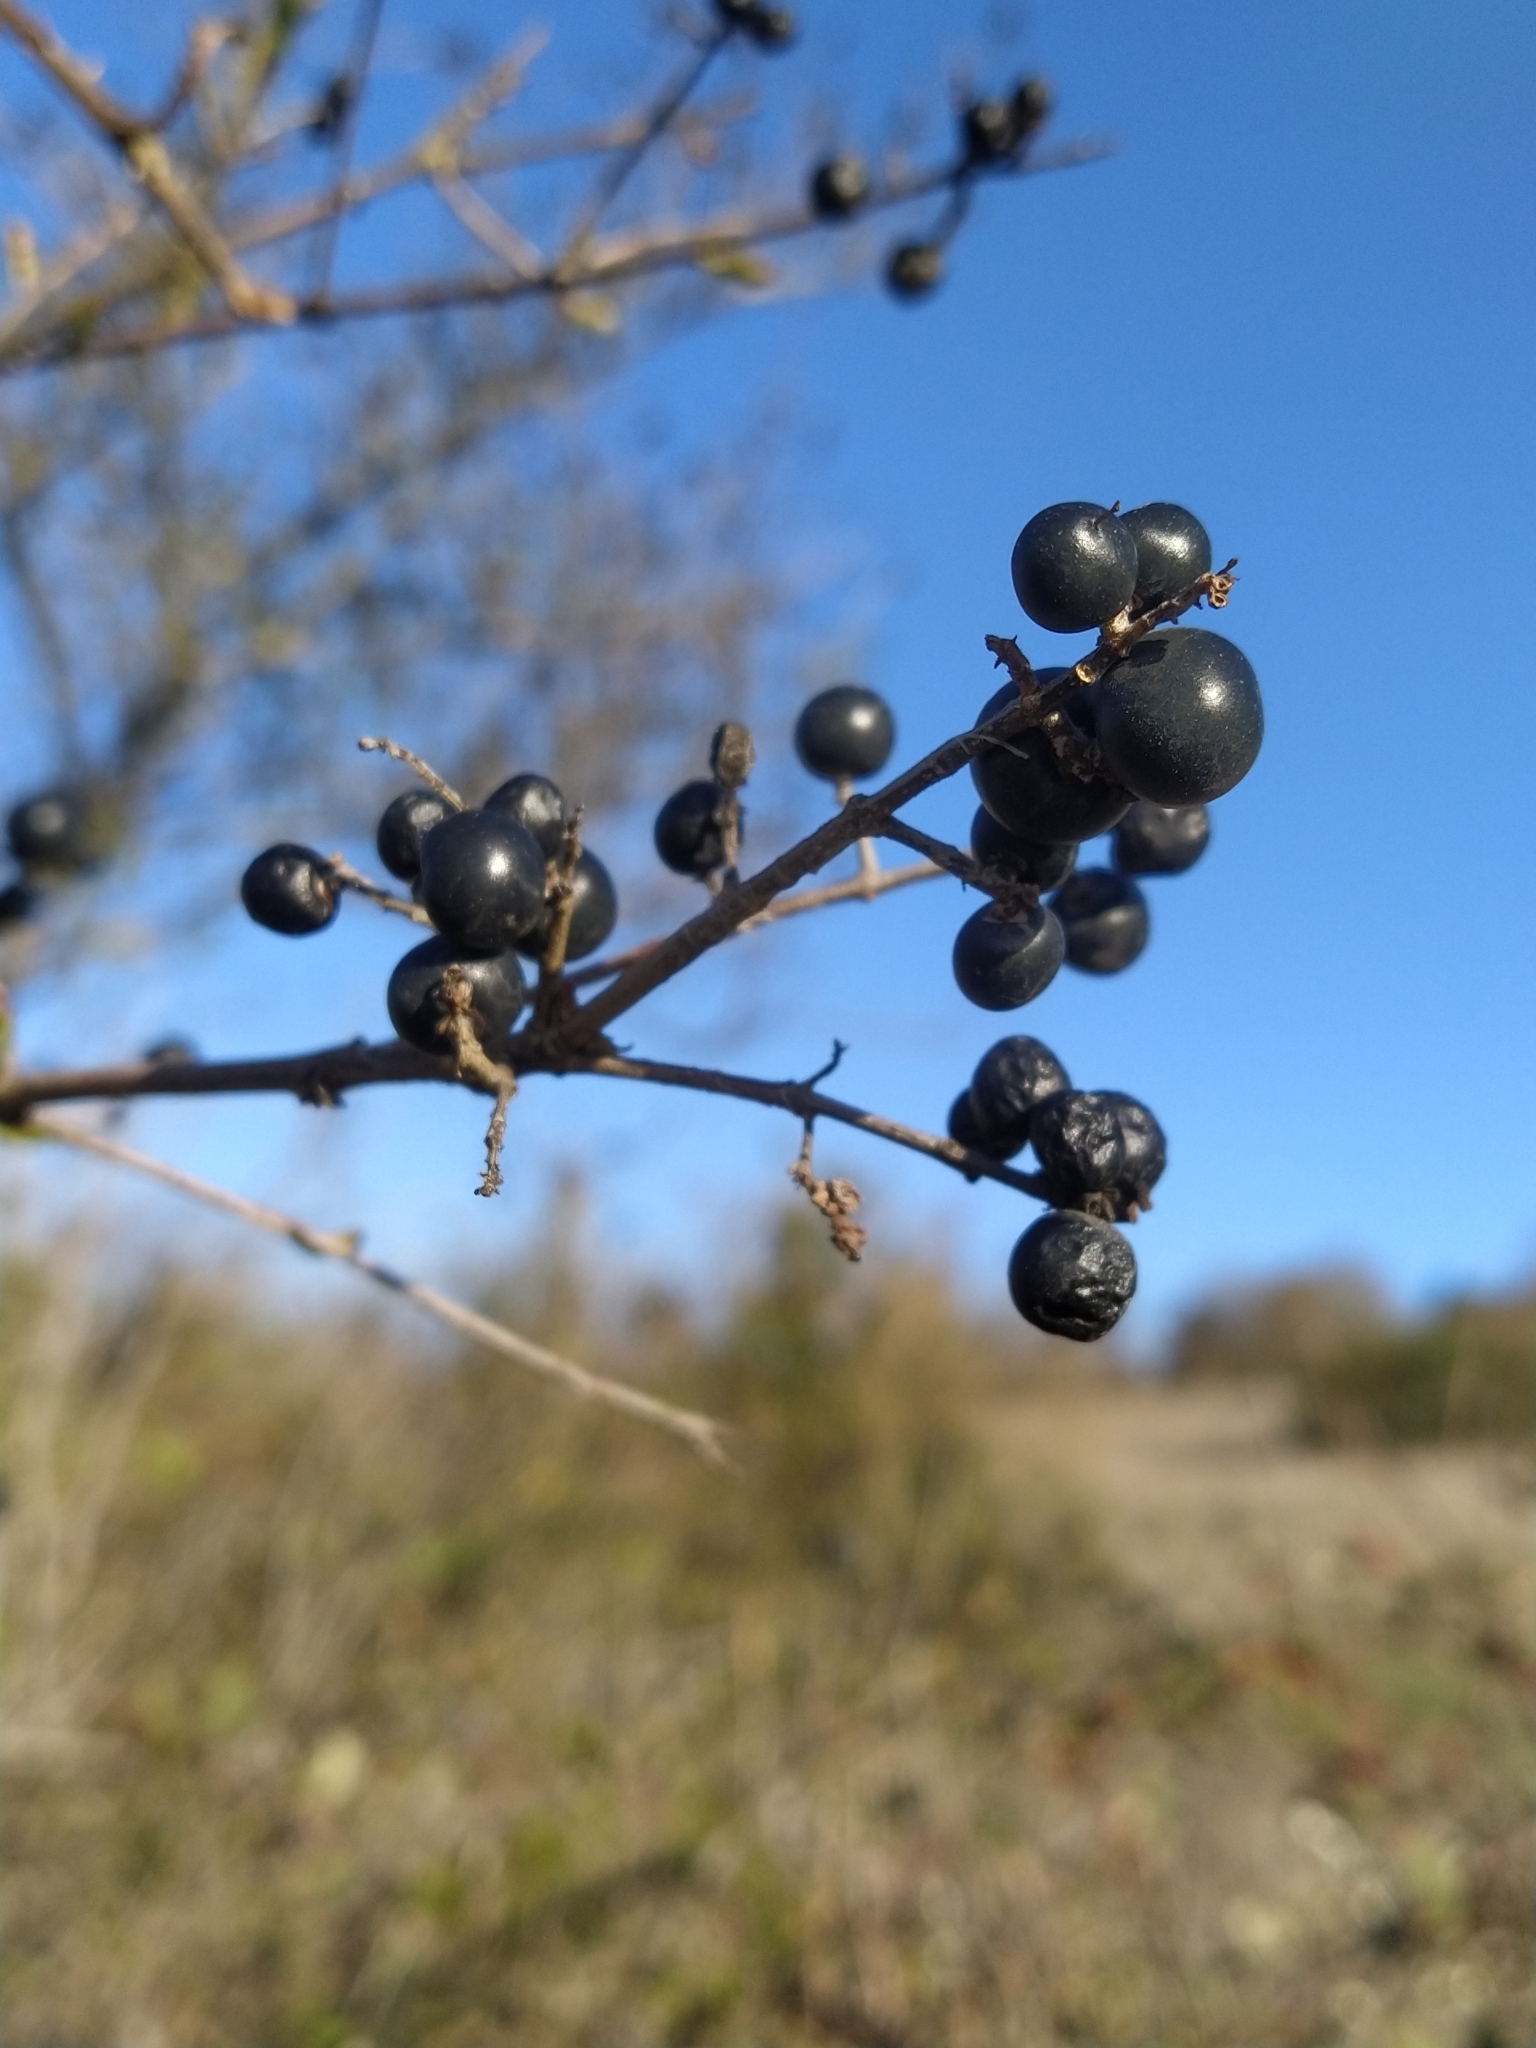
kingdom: Plantae
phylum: Tracheophyta
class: Magnoliopsida
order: Lamiales
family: Oleaceae
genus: Ligustrum
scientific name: Ligustrum vulgare
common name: Wild privet
